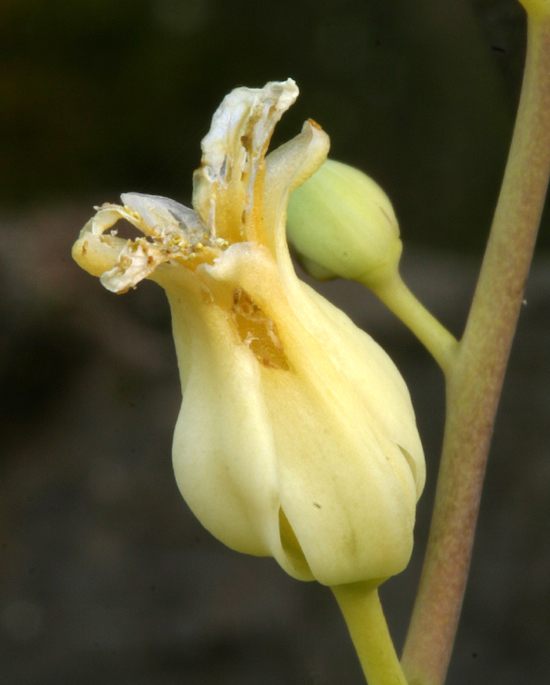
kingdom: Plantae
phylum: Tracheophyta
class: Magnoliopsida
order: Brassicales
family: Brassicaceae
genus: Streptanthus
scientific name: Streptanthus tortuosus
